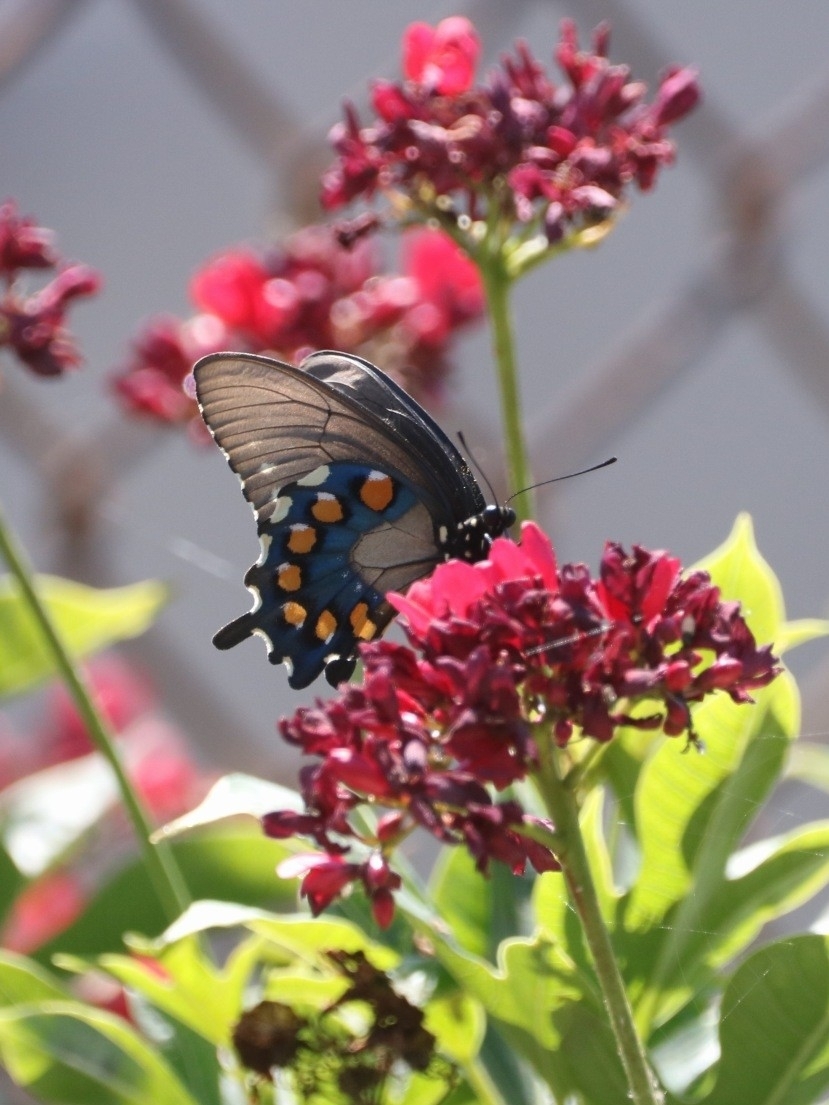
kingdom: Animalia
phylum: Arthropoda
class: Insecta
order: Lepidoptera
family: Papilionidae
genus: Battus
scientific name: Battus philenor
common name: Pipevine swallowtail
